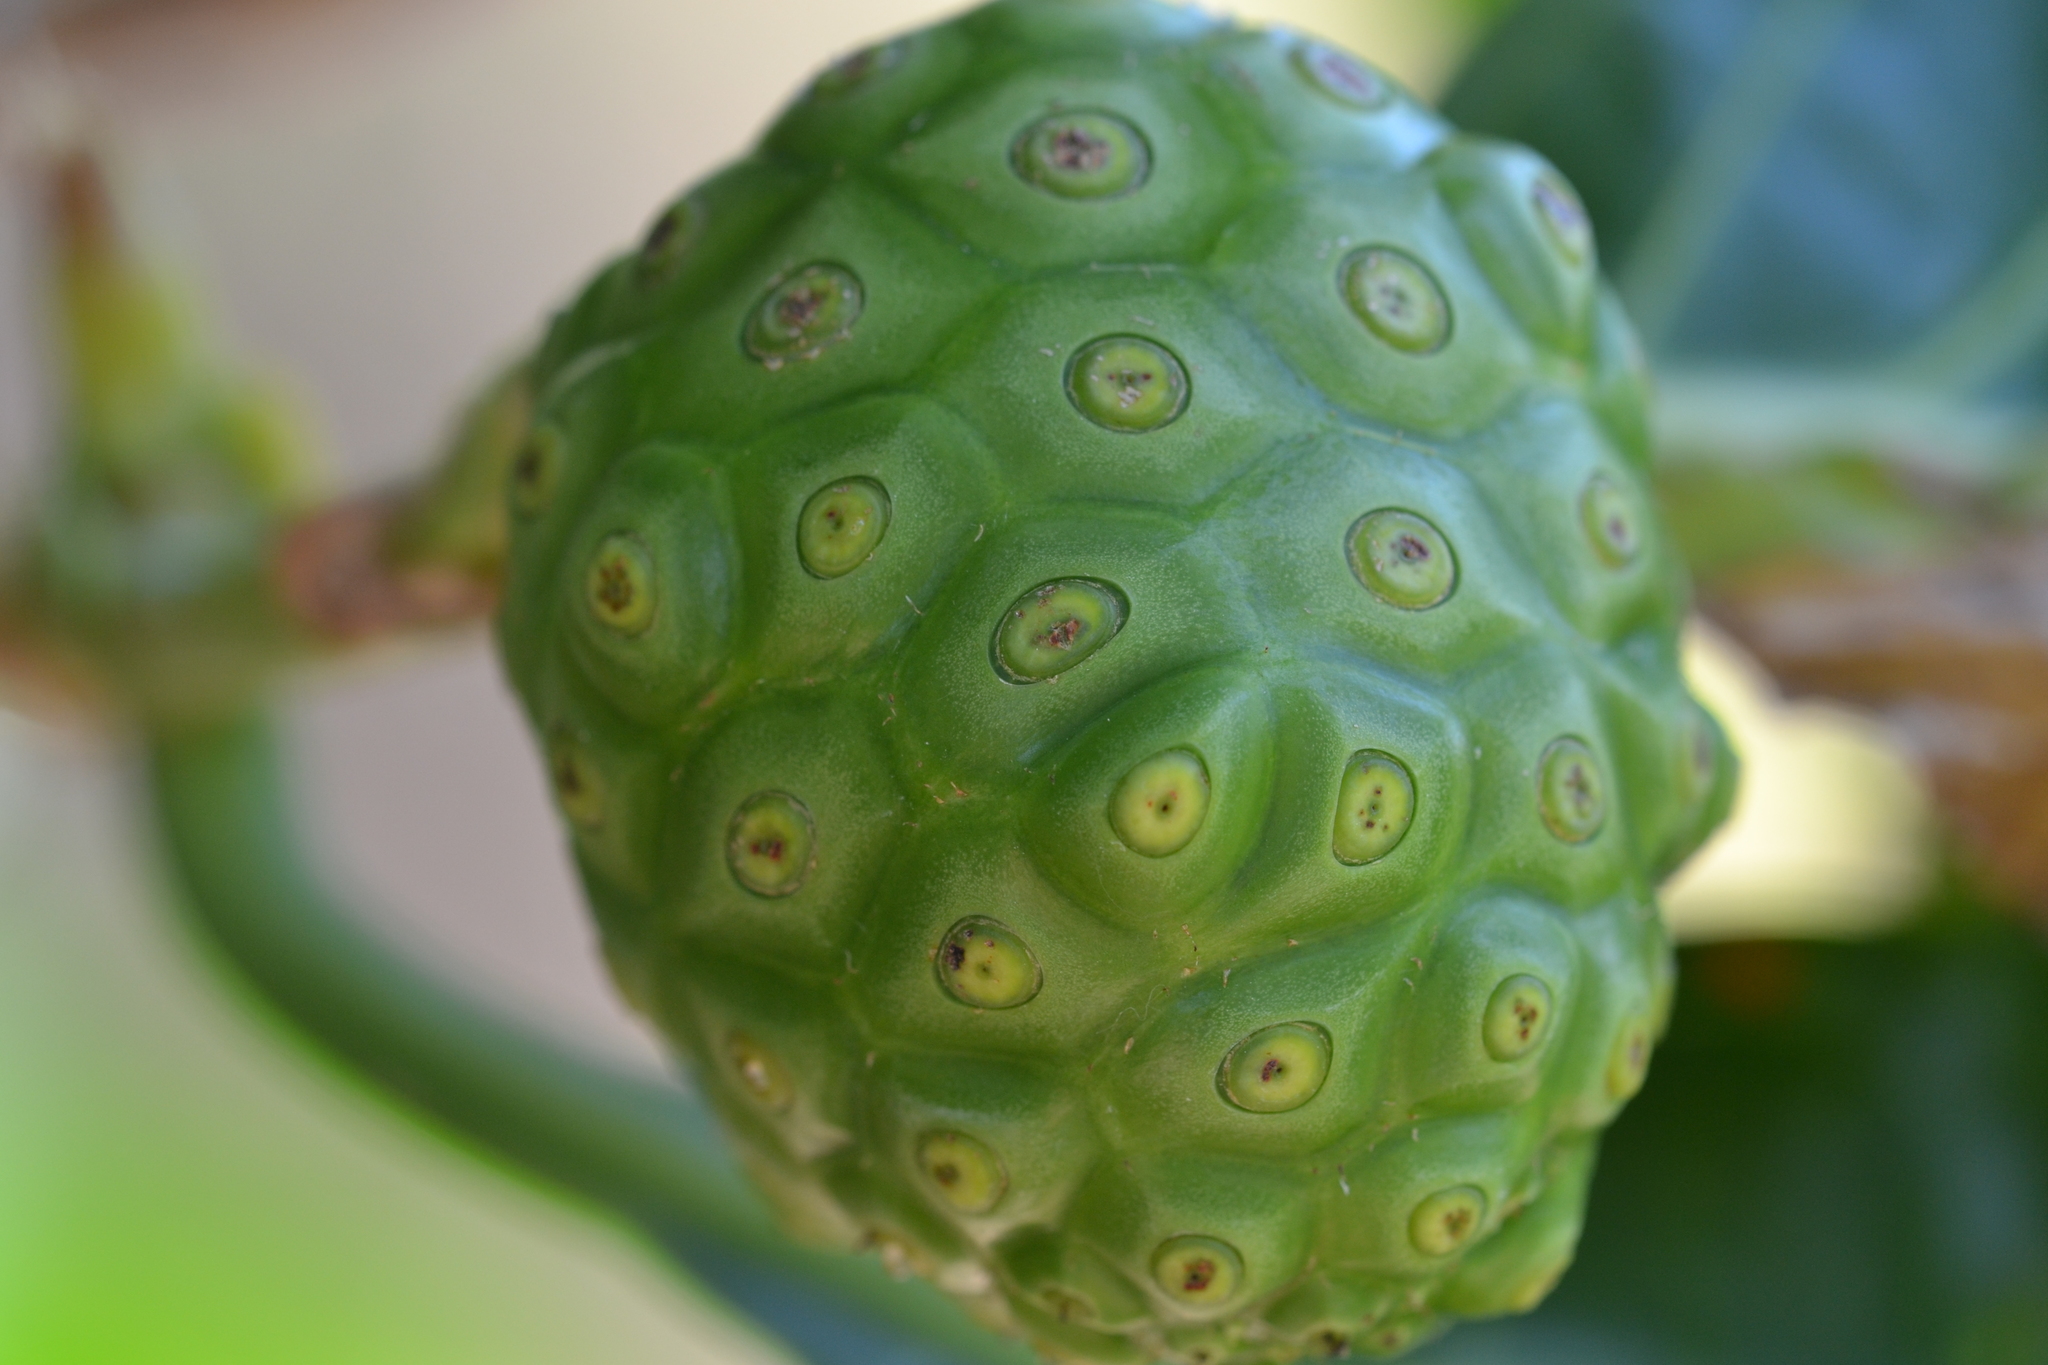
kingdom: Plantae
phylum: Tracheophyta
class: Magnoliopsida
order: Gentianales
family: Rubiaceae
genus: Morinda
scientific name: Morinda citrifolia
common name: Indian-mulberry
